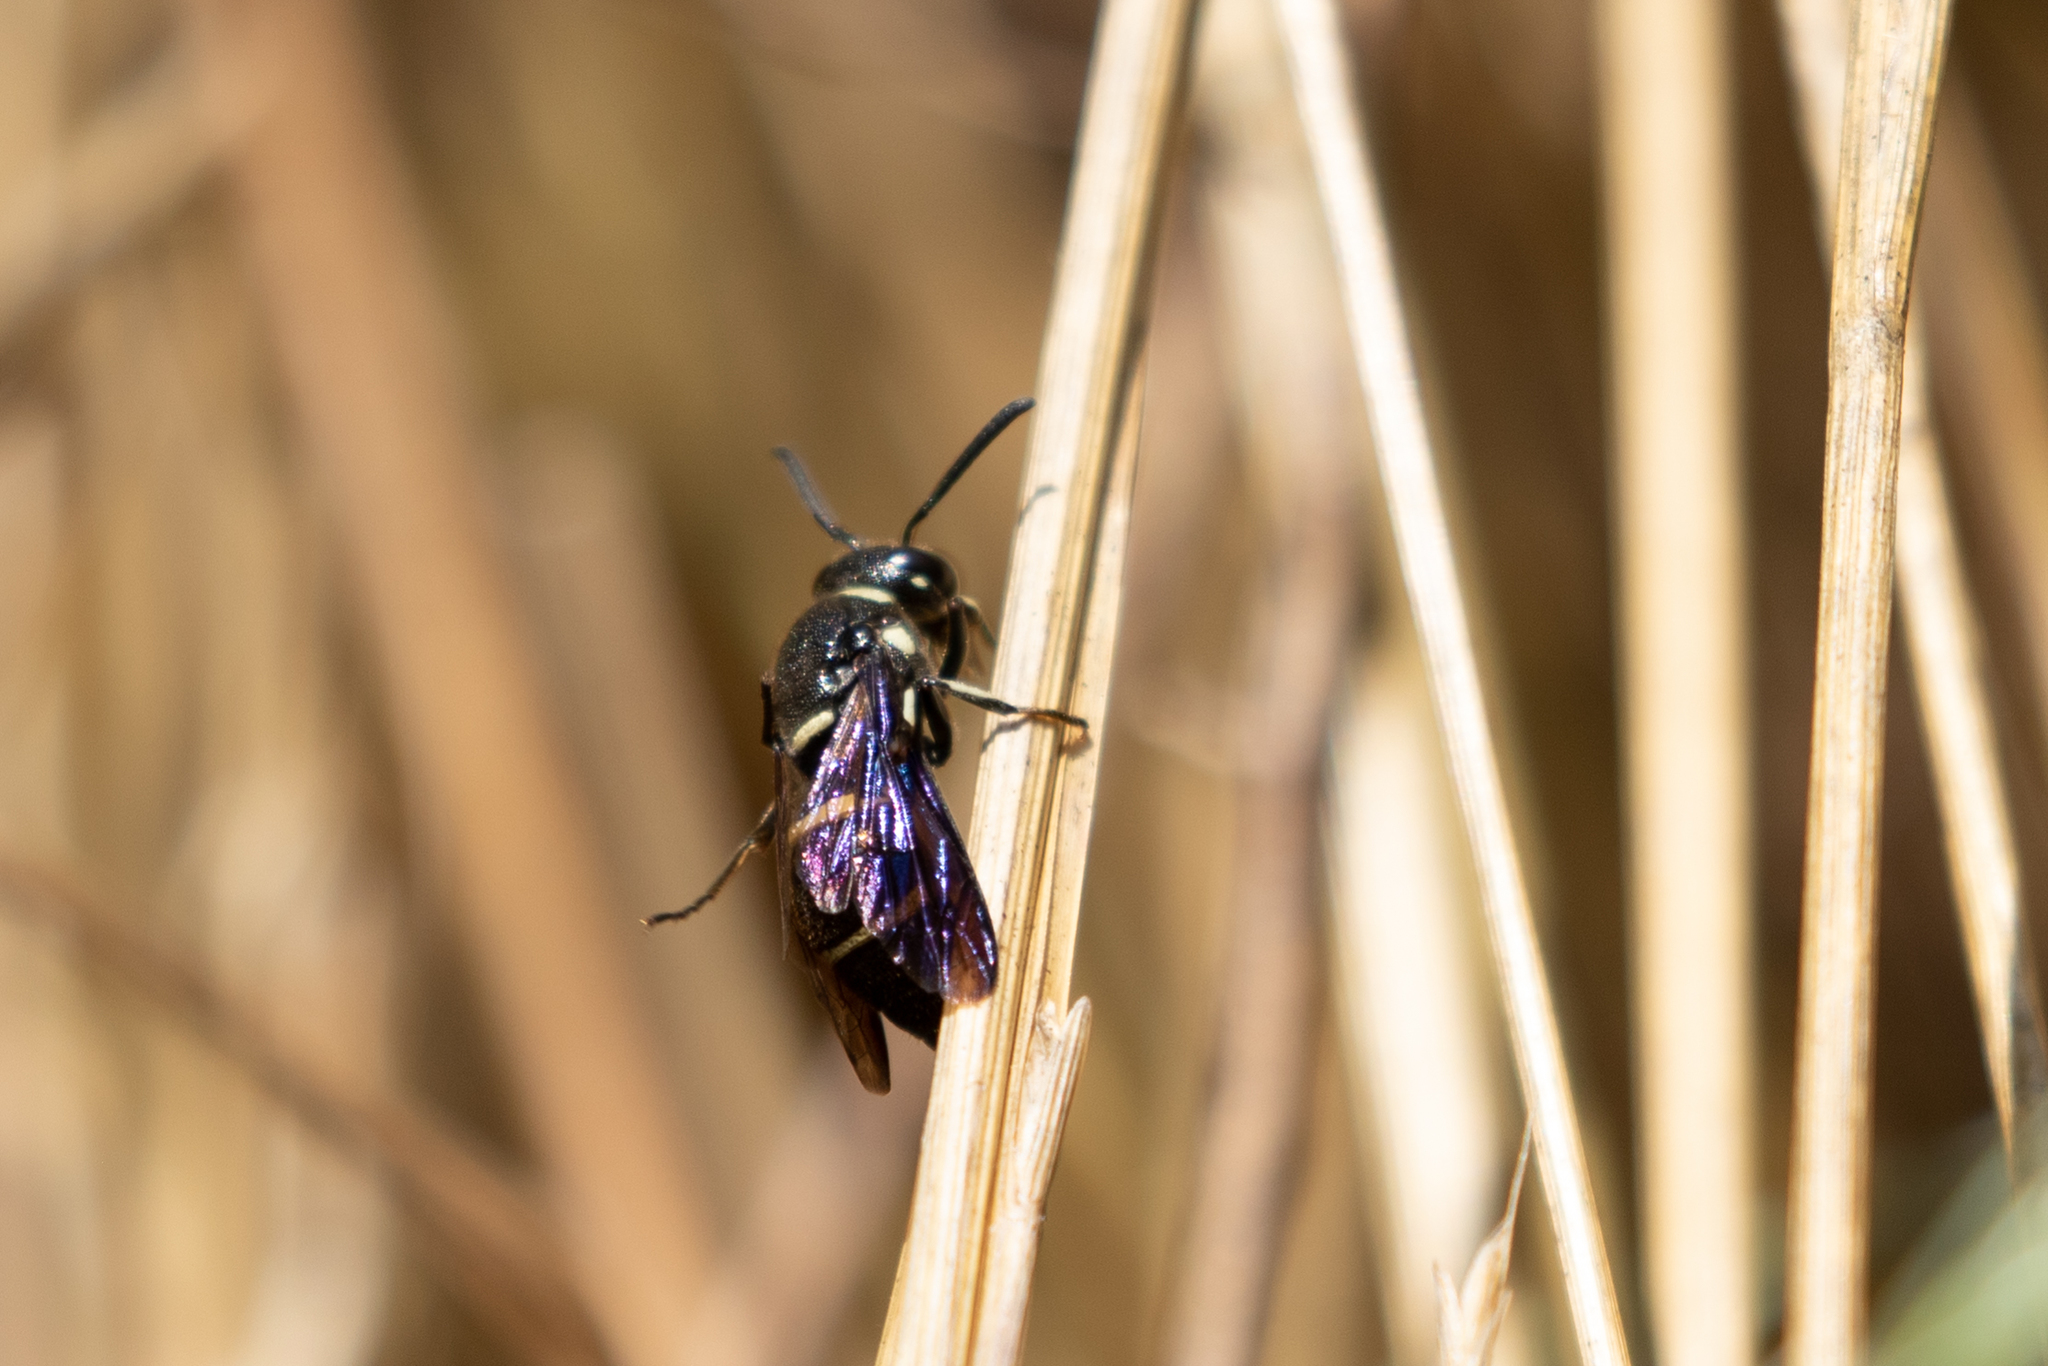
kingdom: Animalia
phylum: Arthropoda
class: Insecta
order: Hymenoptera
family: Eumenidae
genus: Euodynerus
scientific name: Euodynerus schwarzi
